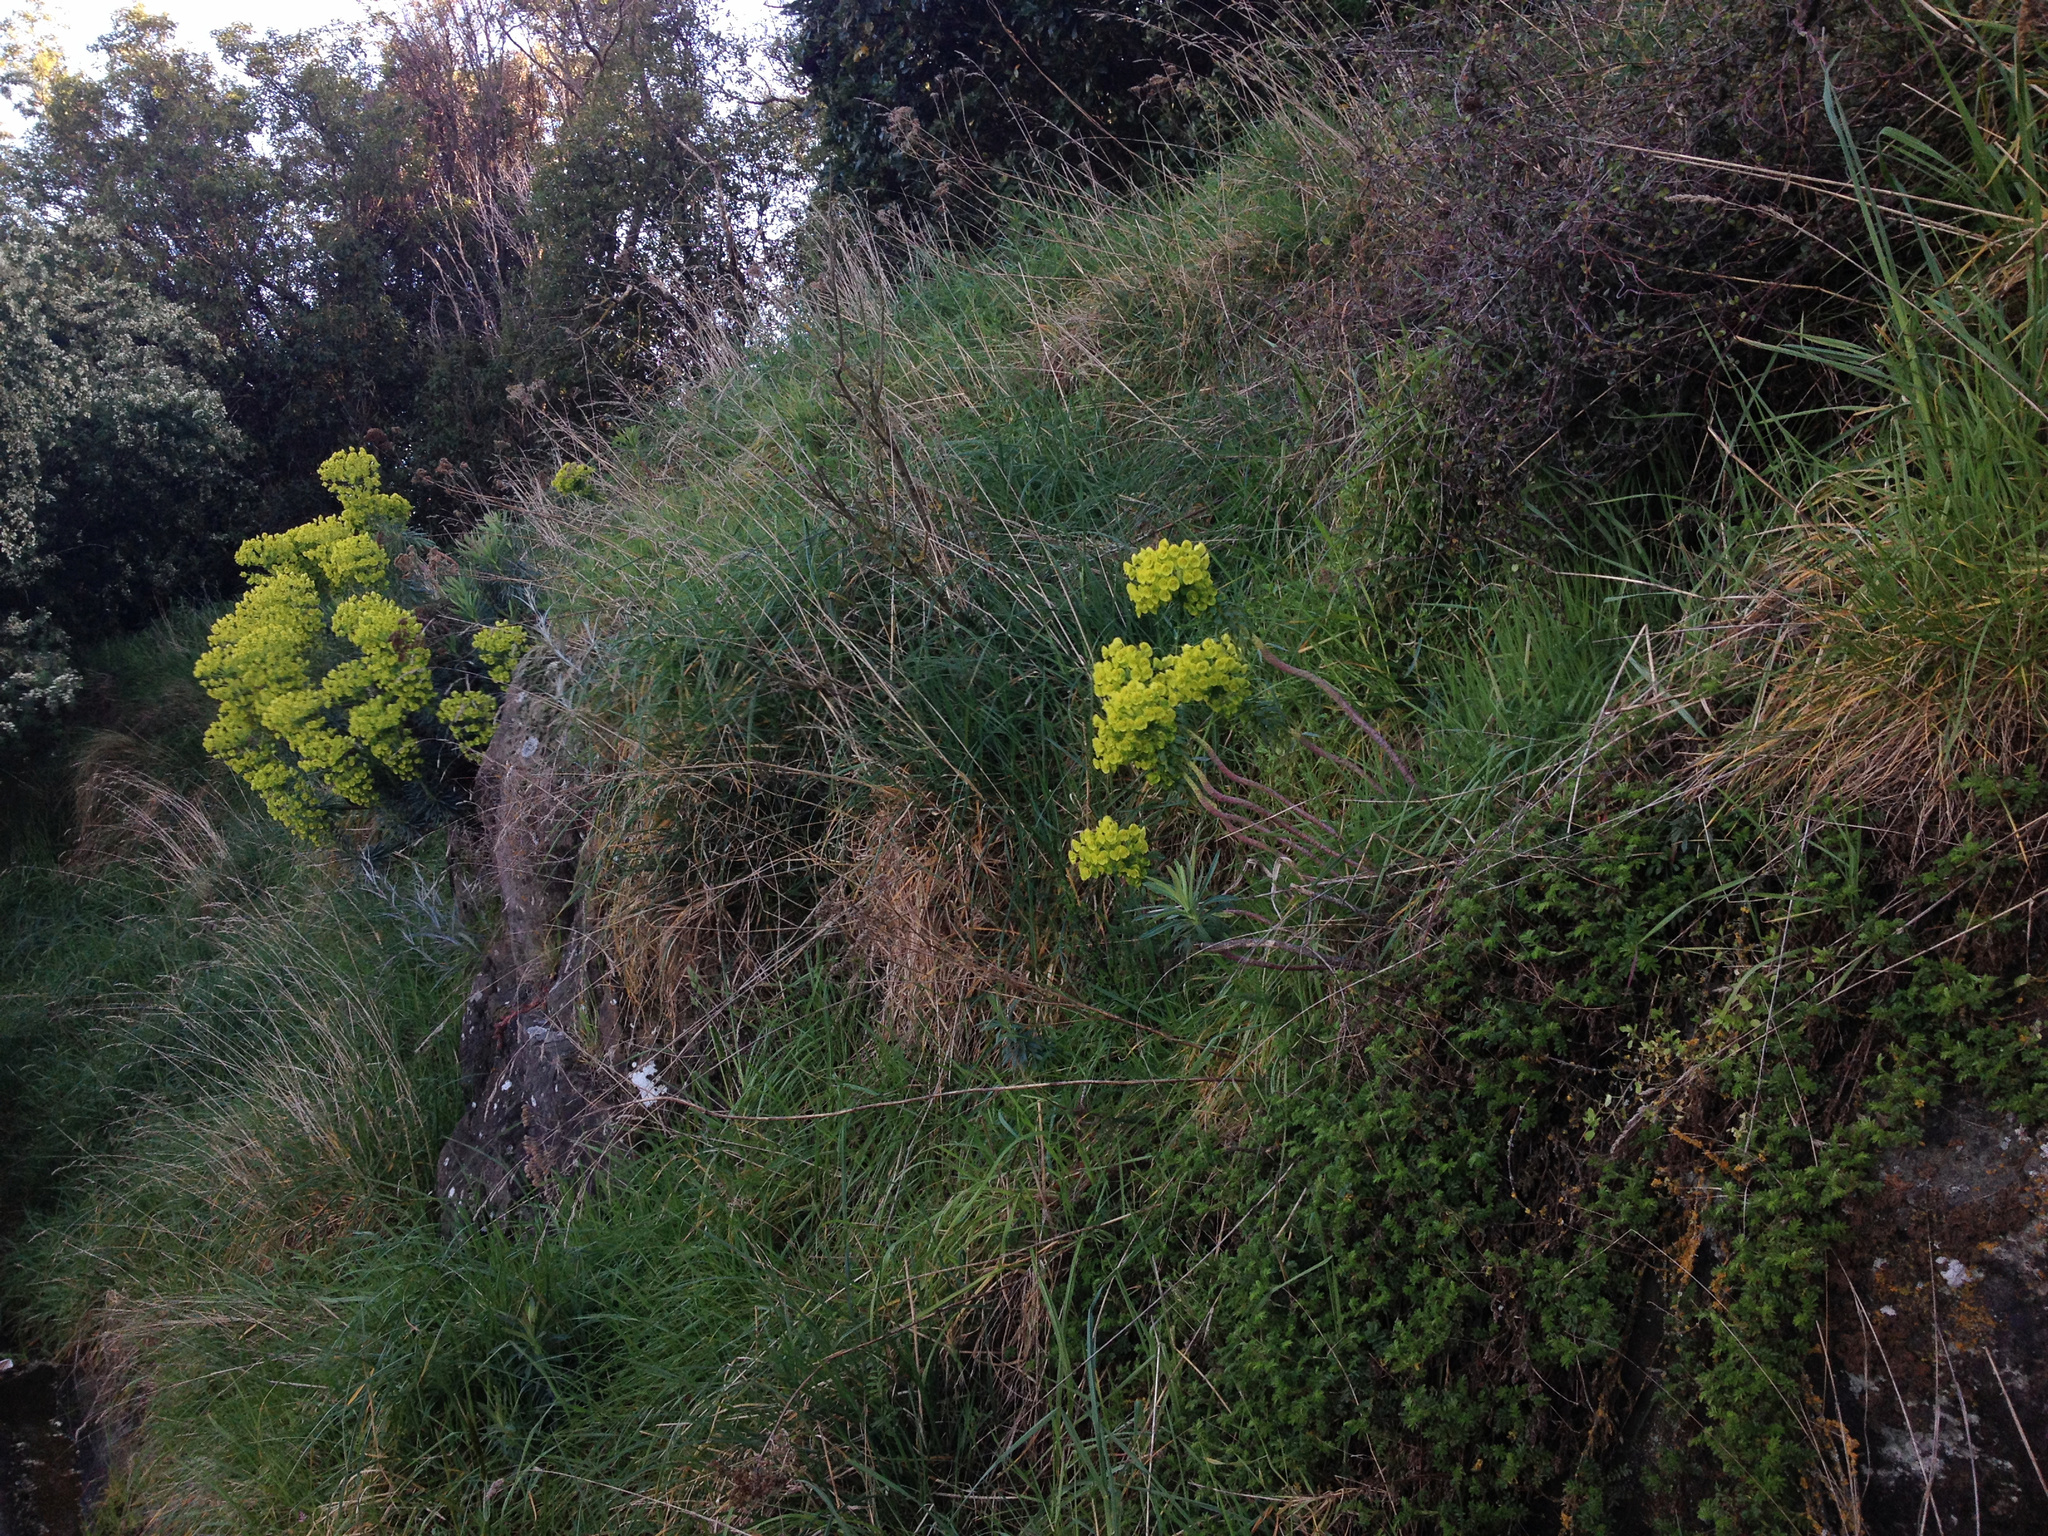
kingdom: Plantae
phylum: Tracheophyta
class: Magnoliopsida
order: Malpighiales
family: Euphorbiaceae
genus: Euphorbia
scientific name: Euphorbia characias
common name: Mediterranean spurge
